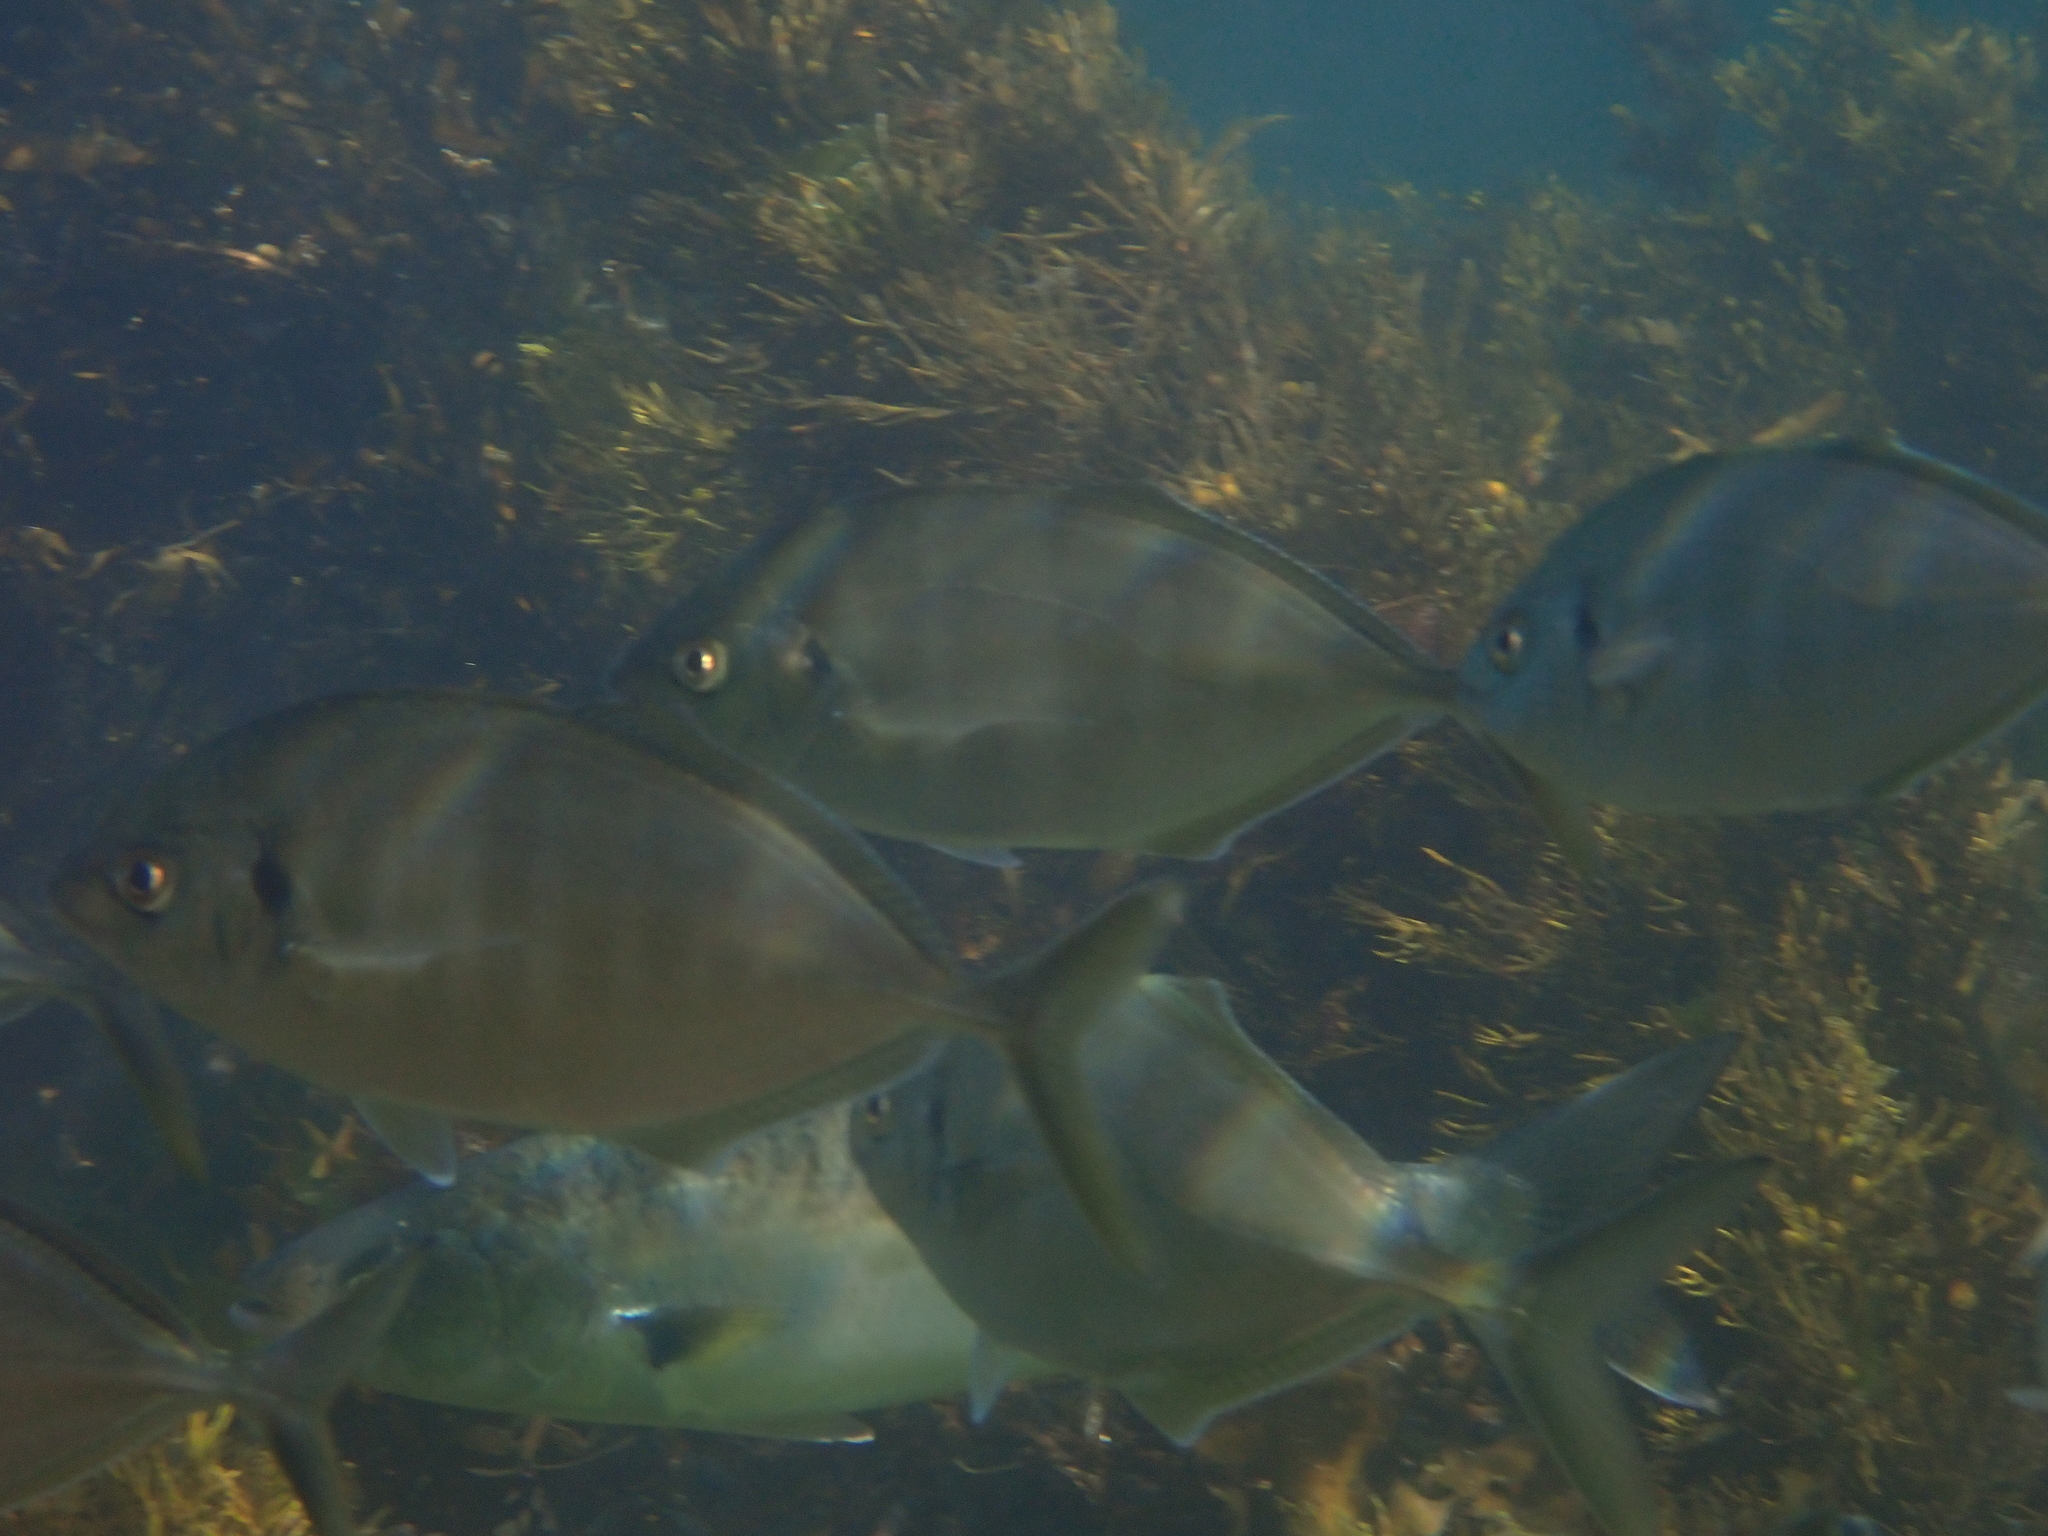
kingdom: Animalia
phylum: Chordata
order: Perciformes
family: Carangidae
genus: Pseudocaranx
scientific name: Pseudocaranx dentex
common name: White trevally
